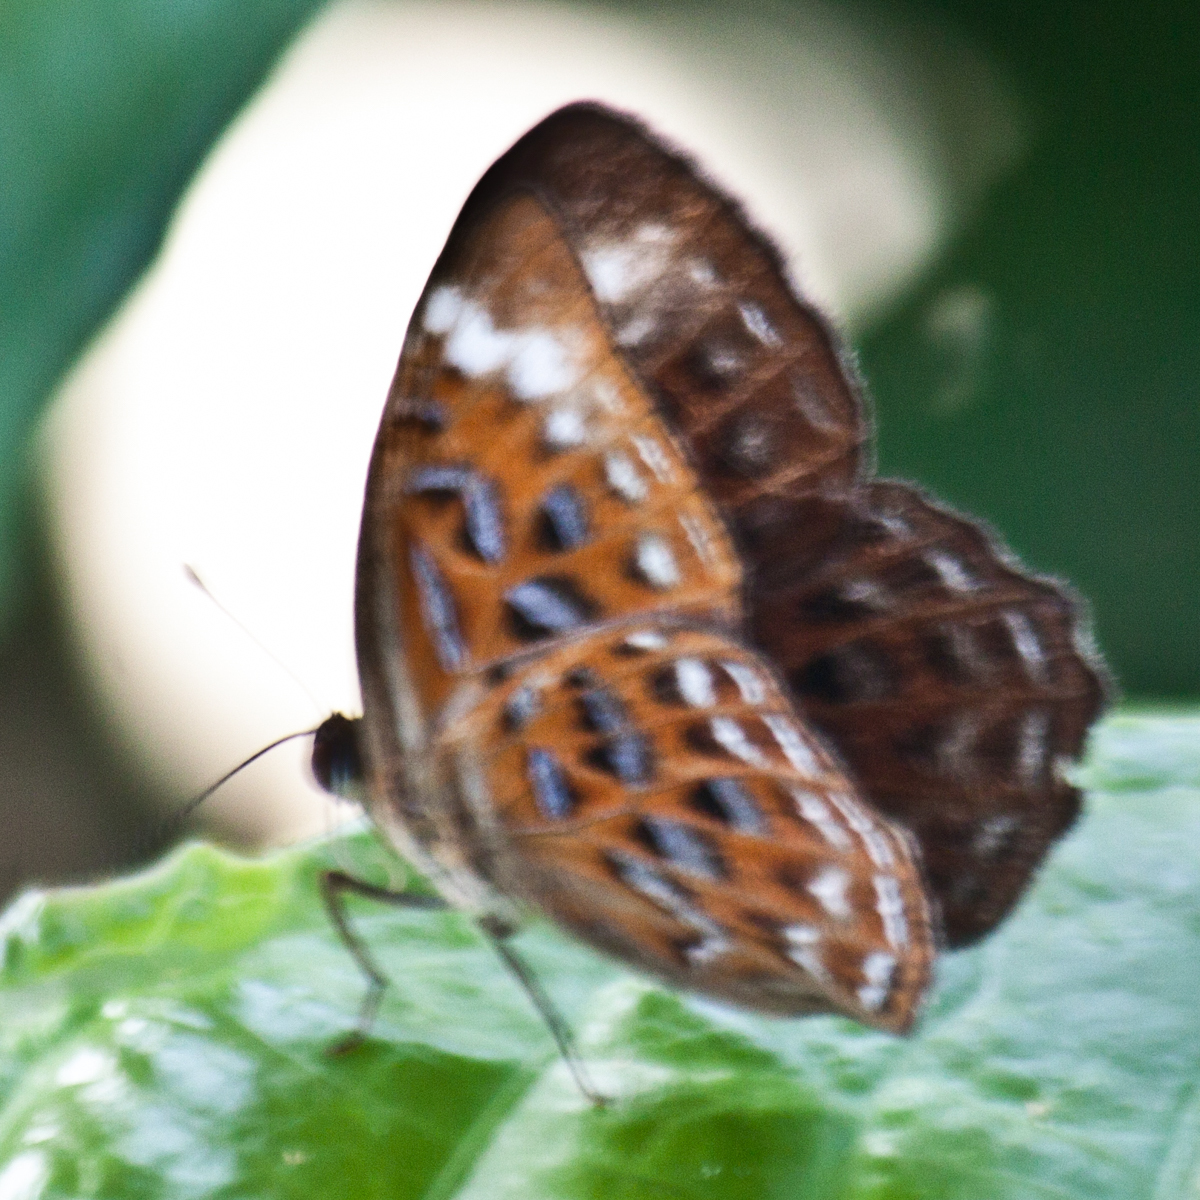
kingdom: Animalia
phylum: Arthropoda
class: Insecta
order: Lepidoptera
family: Erebidae
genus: Dysschema
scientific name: Dysschema
